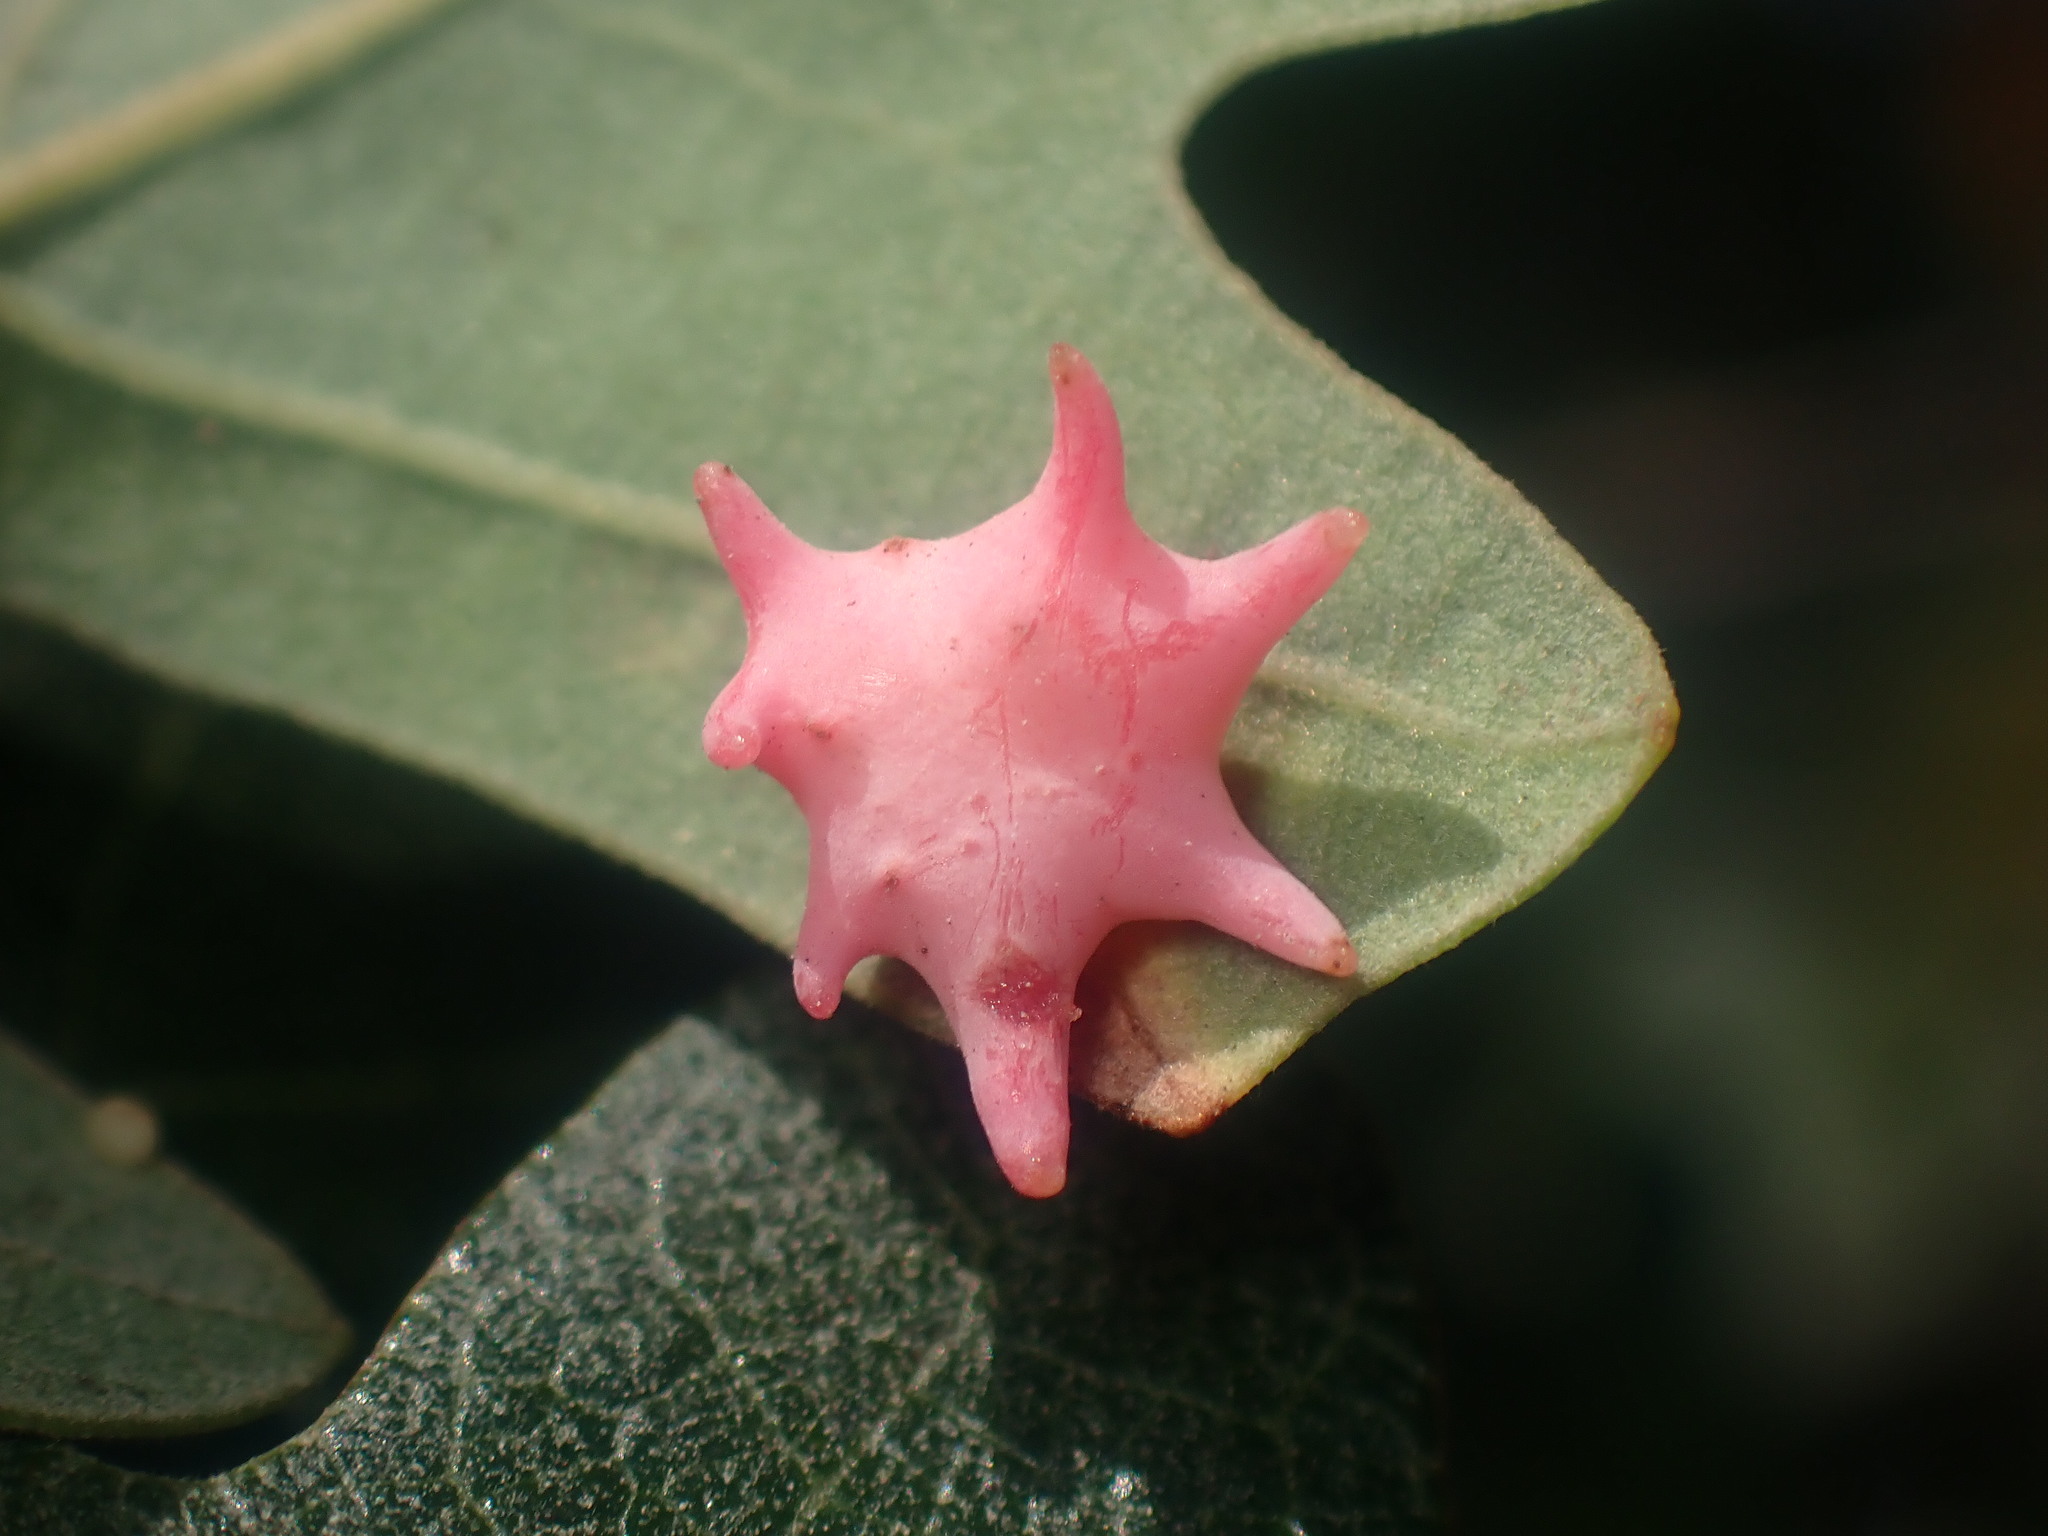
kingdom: Animalia
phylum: Arthropoda
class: Insecta
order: Hymenoptera
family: Cynipidae
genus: Cynips
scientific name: Cynips douglasi
